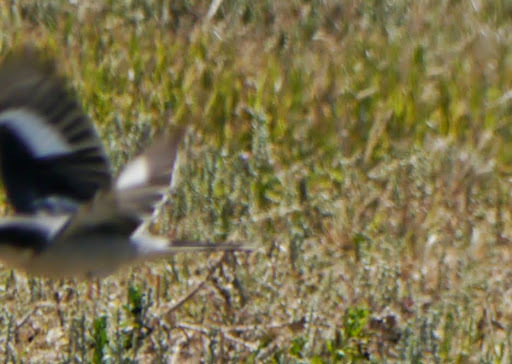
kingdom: Animalia
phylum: Chordata
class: Aves
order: Passeriformes
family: Laniidae
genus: Lanius
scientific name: Lanius ludovicianus
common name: Loggerhead shrike
